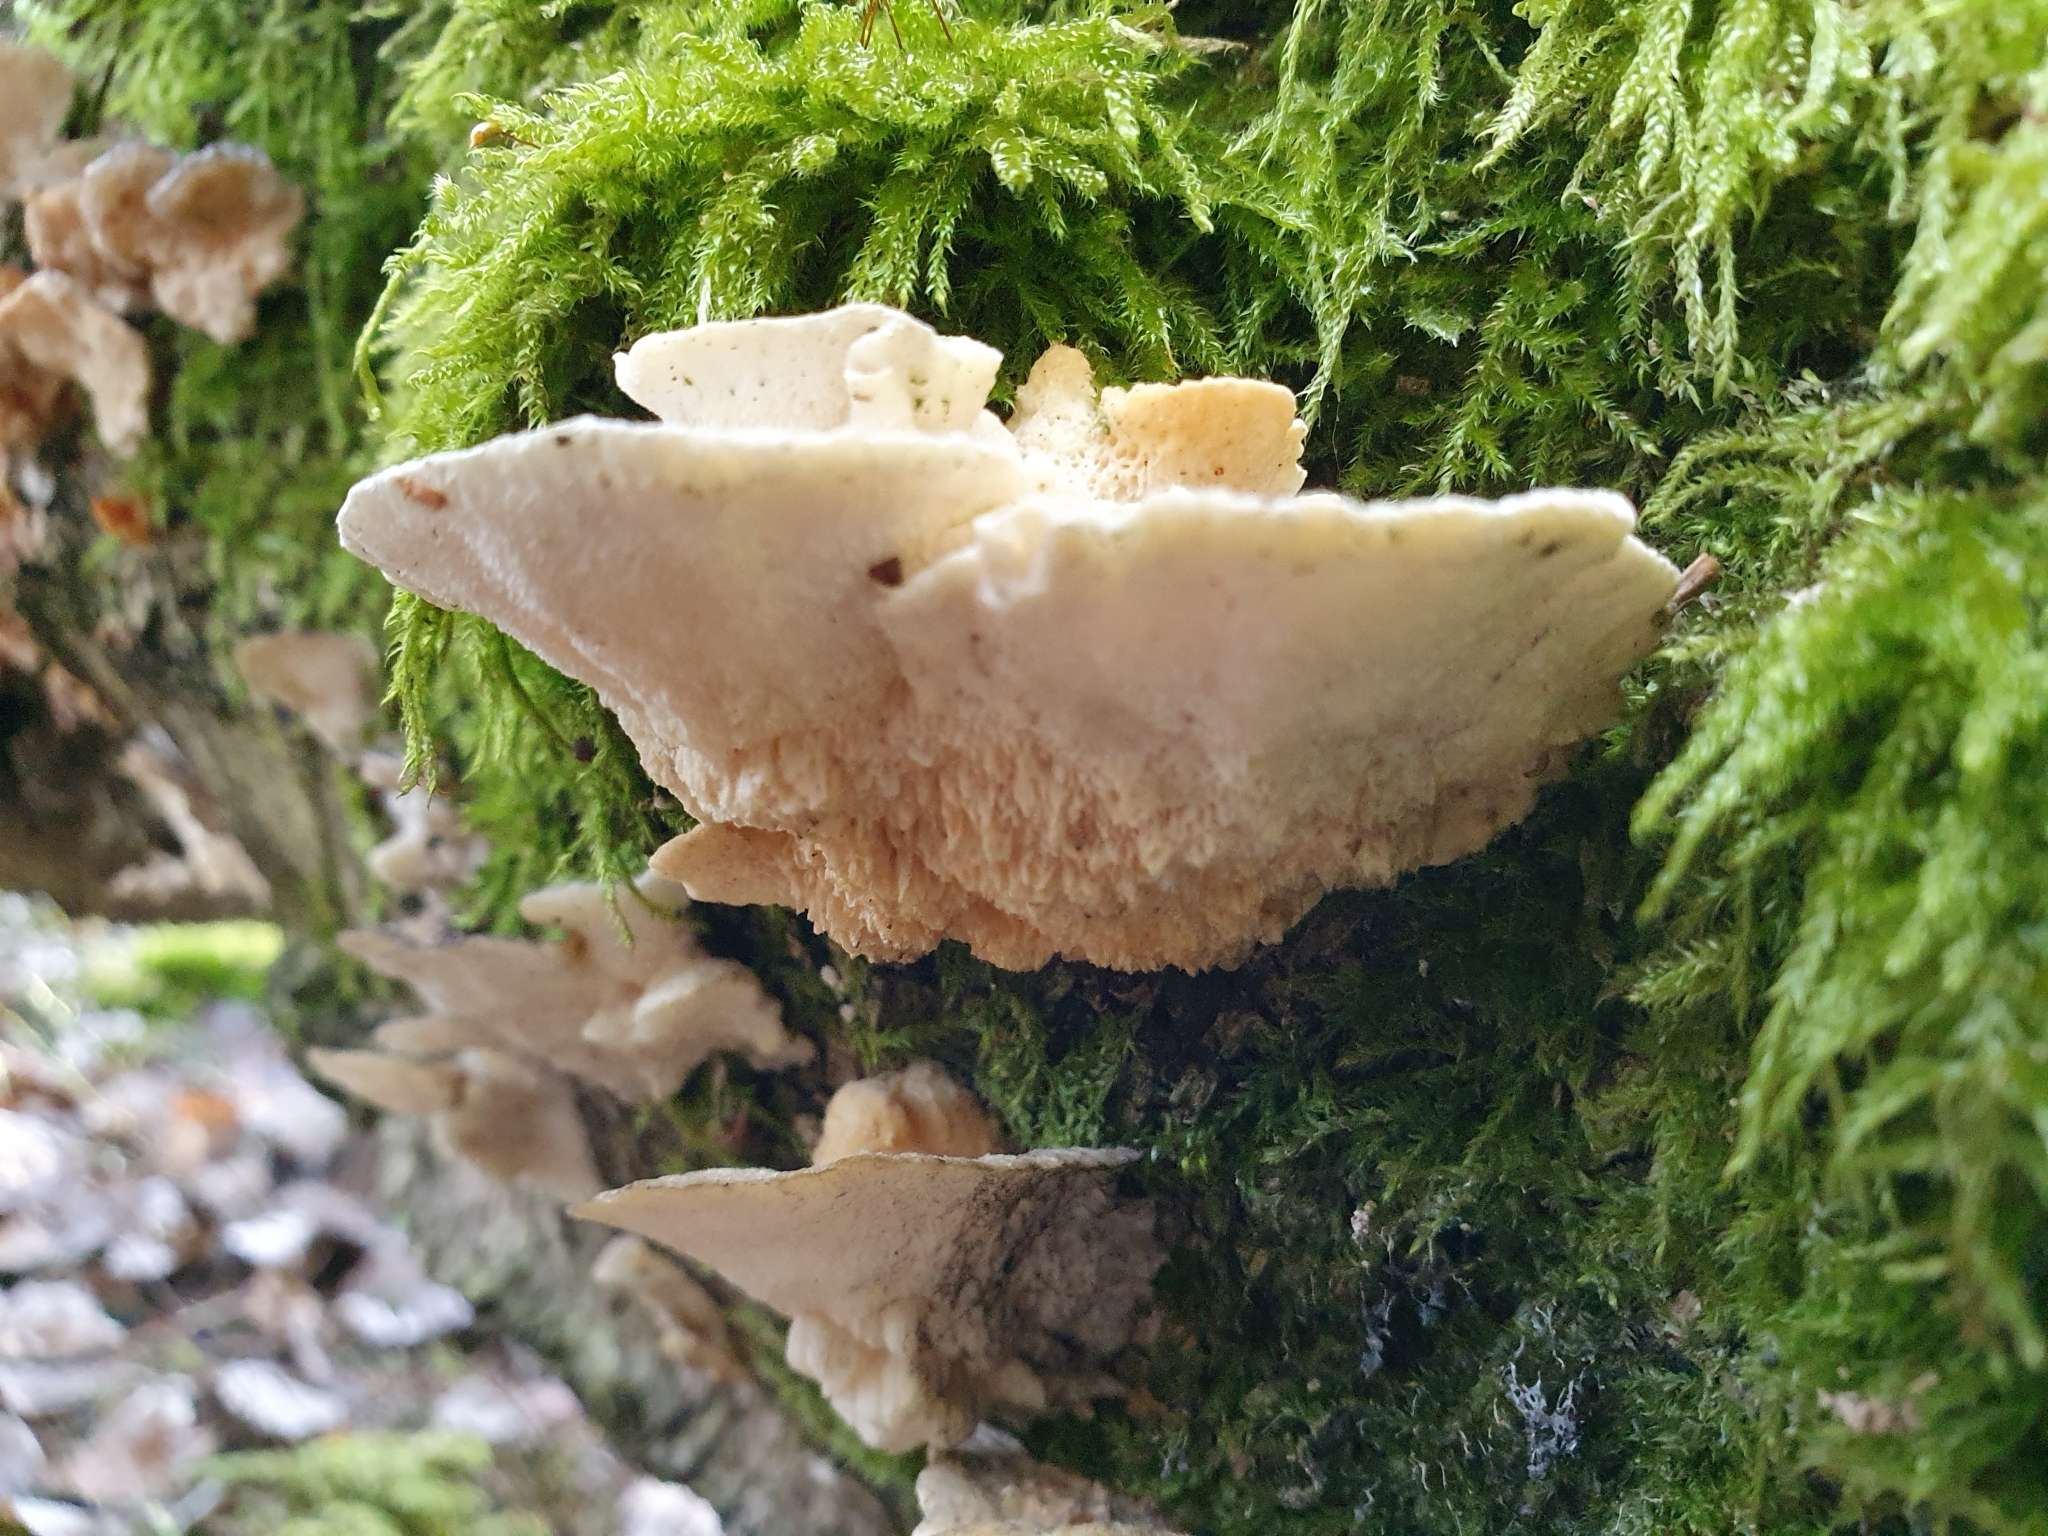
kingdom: Fungi
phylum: Basidiomycota
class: Agaricomycetes
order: Polyporales
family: Polyporaceae
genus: Trametes
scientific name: Trametes ochracea
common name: Ochre bracket
